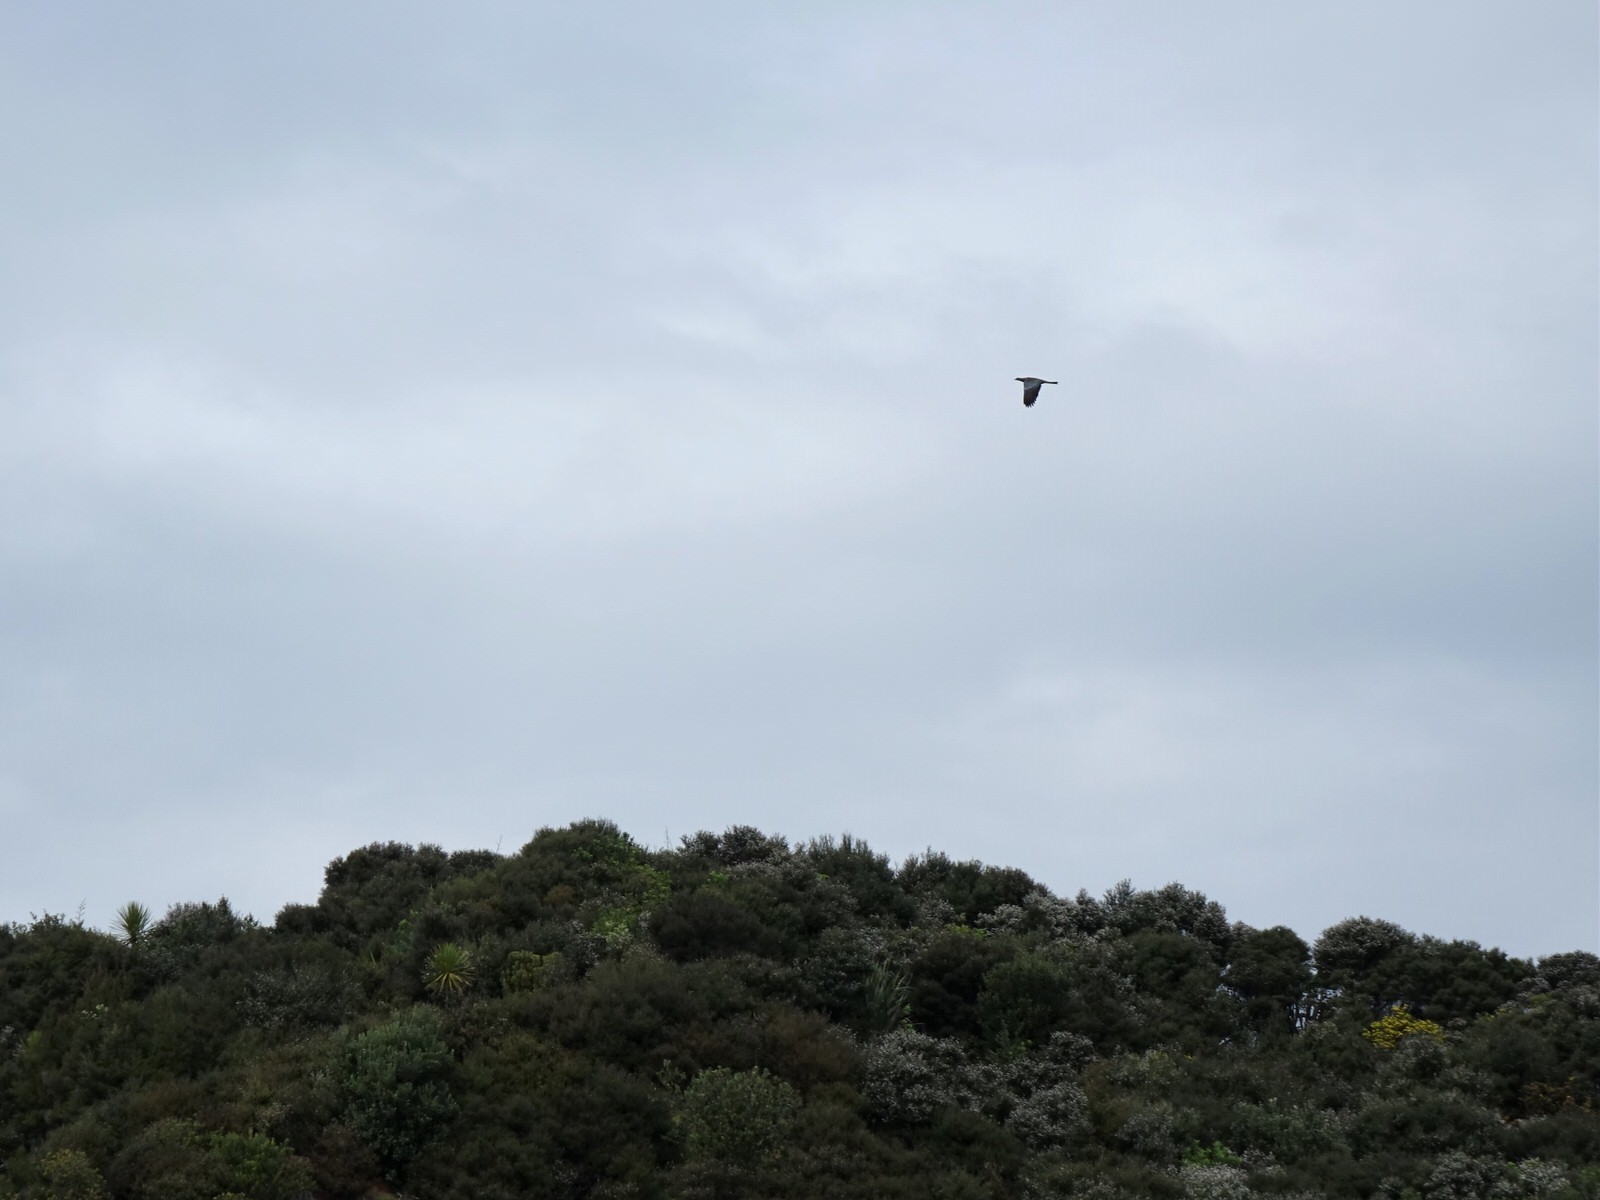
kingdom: Animalia
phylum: Chordata
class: Aves
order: Columbiformes
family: Columbidae
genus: Hemiphaga
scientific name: Hemiphaga novaeseelandiae
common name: New zealand pigeon
